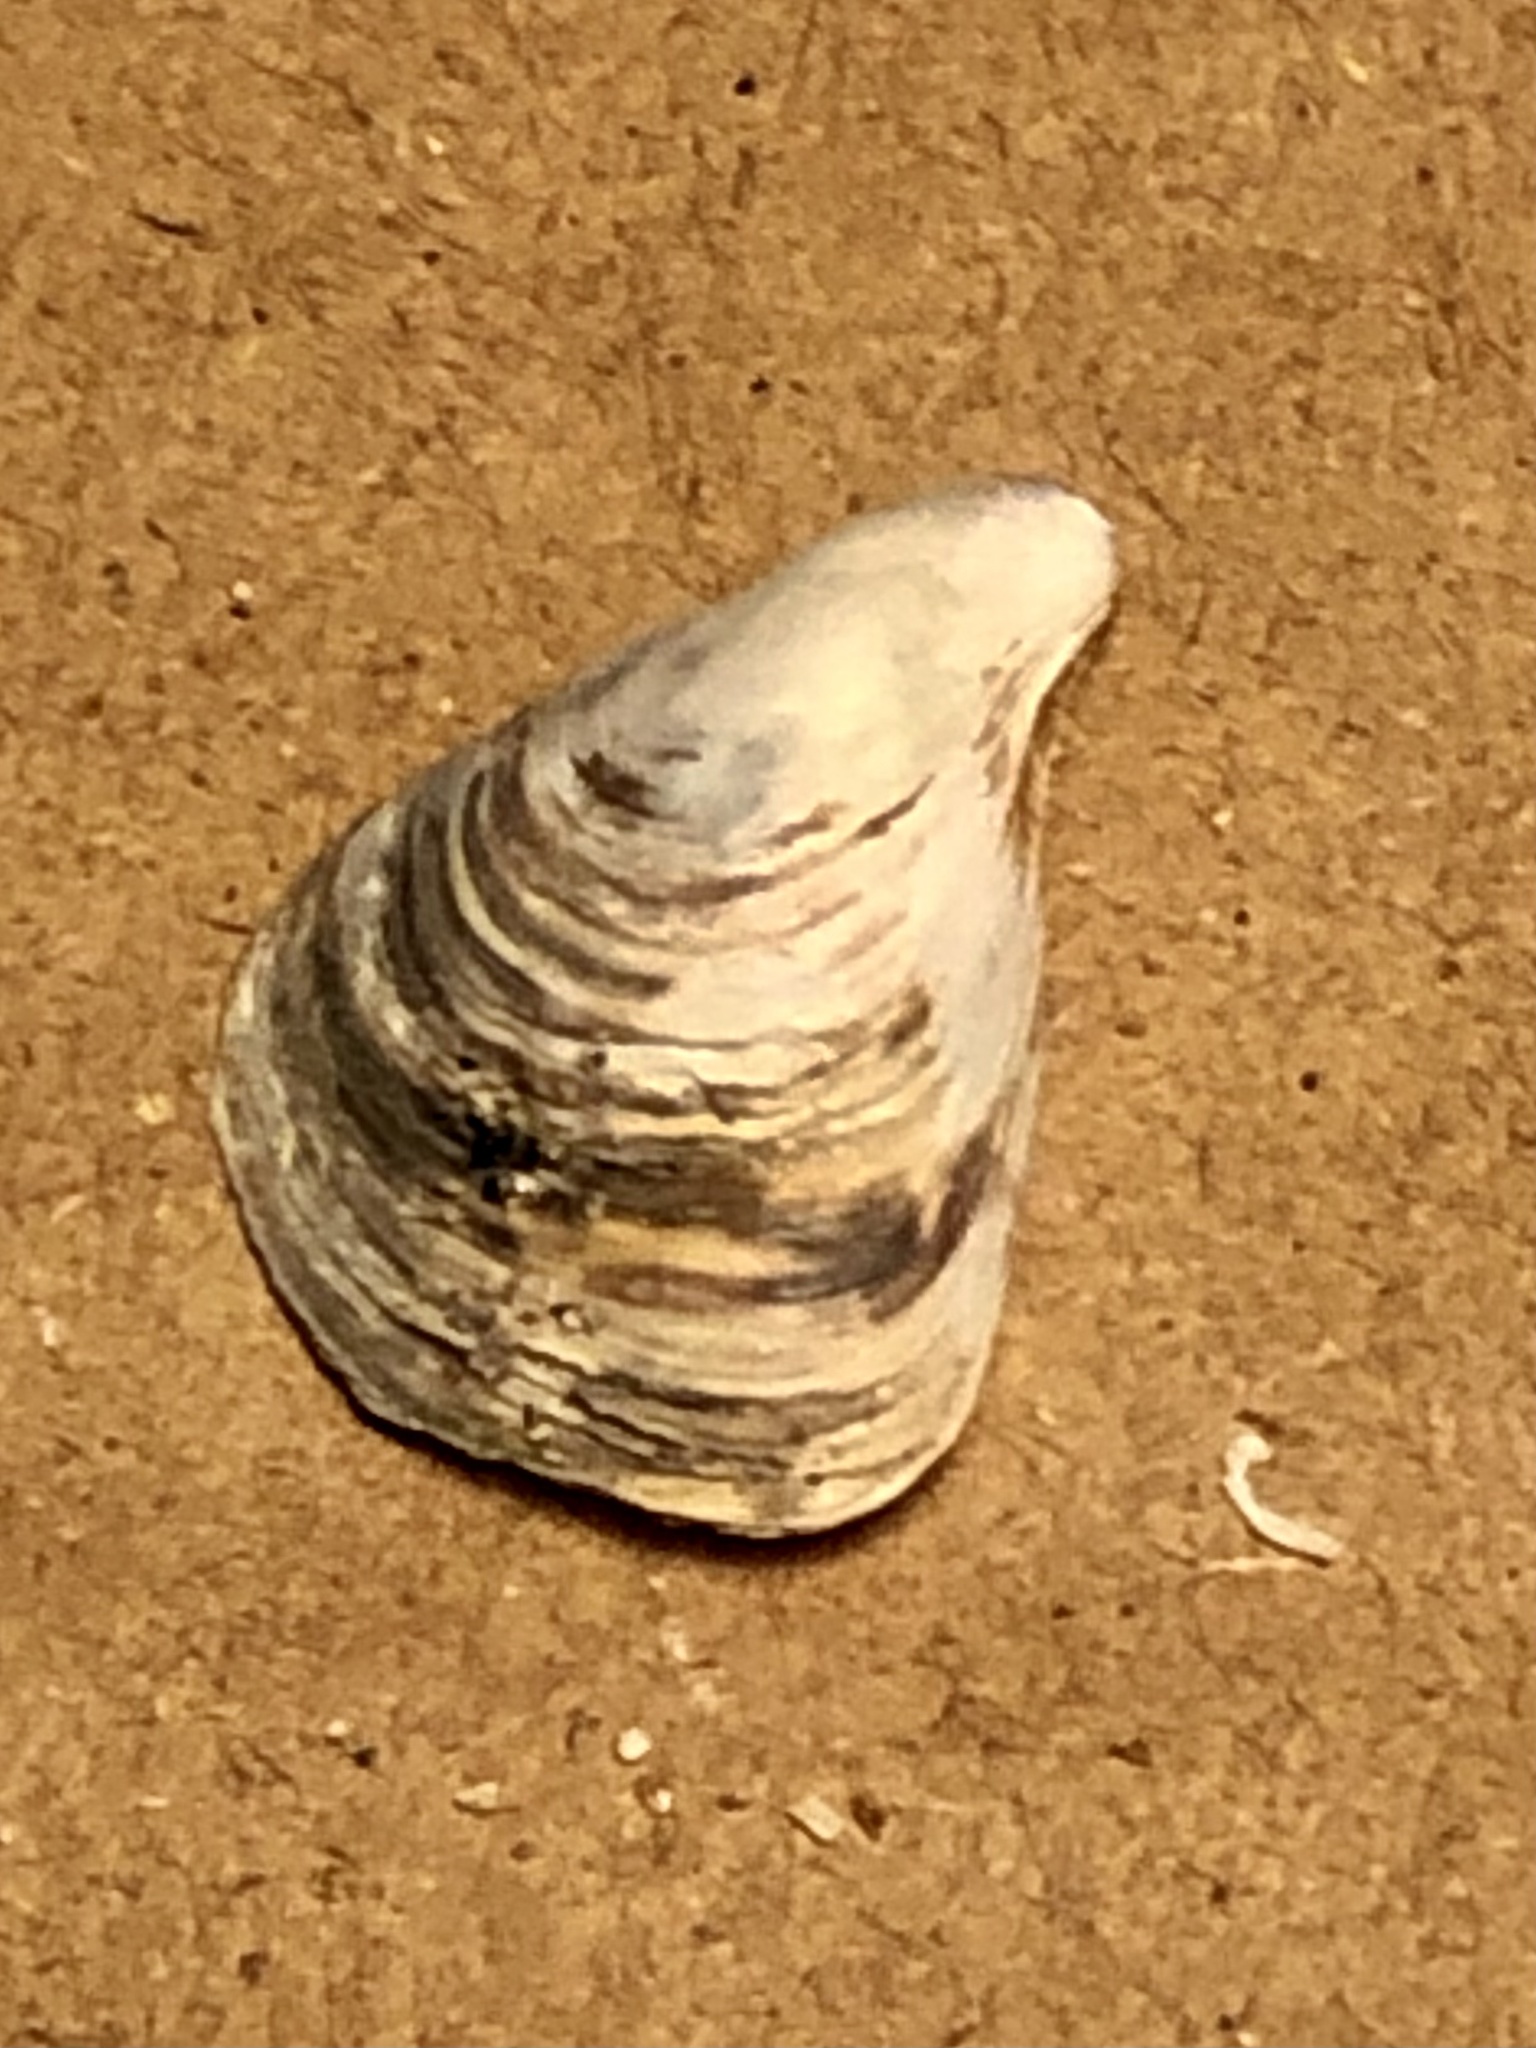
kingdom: Animalia
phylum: Mollusca
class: Bivalvia
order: Myida
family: Dreissenidae
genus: Dreissena
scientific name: Dreissena bugensis
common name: Quagga mussel
